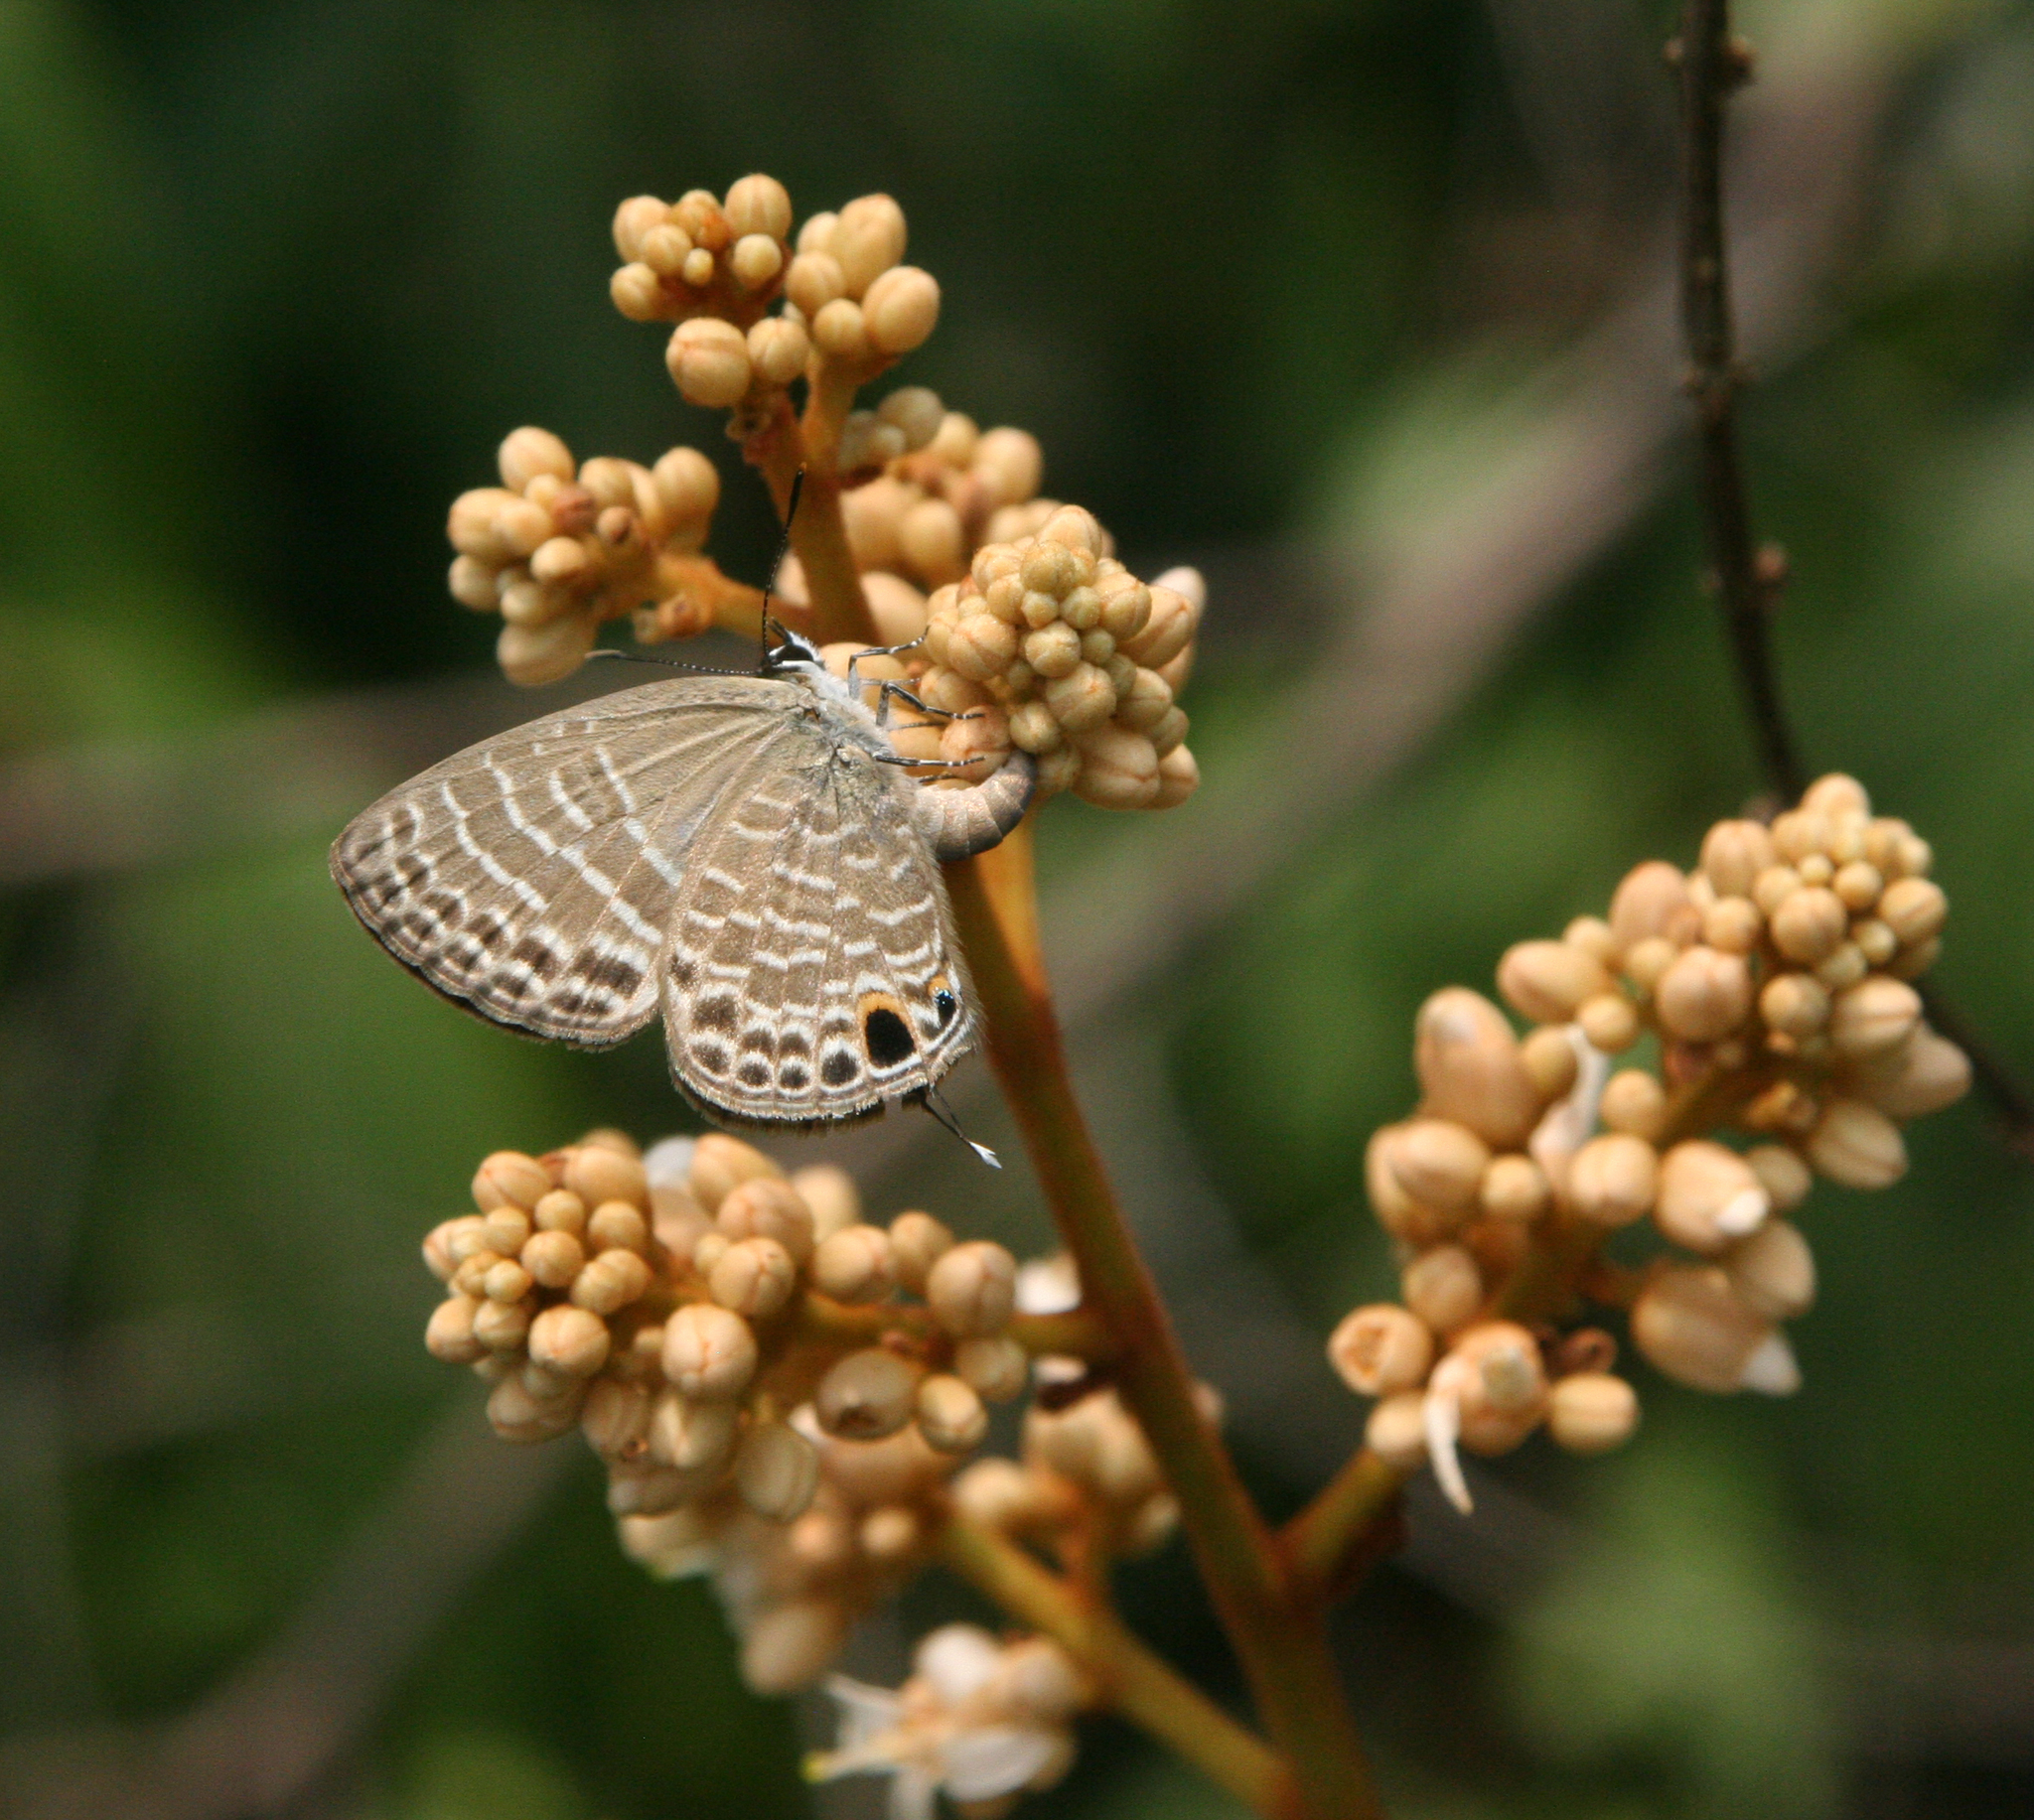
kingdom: Animalia
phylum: Arthropoda
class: Insecta
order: Lepidoptera
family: Lycaenidae
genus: Nacaduba
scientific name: Nacaduba subperusia
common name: Violet fourline blue
